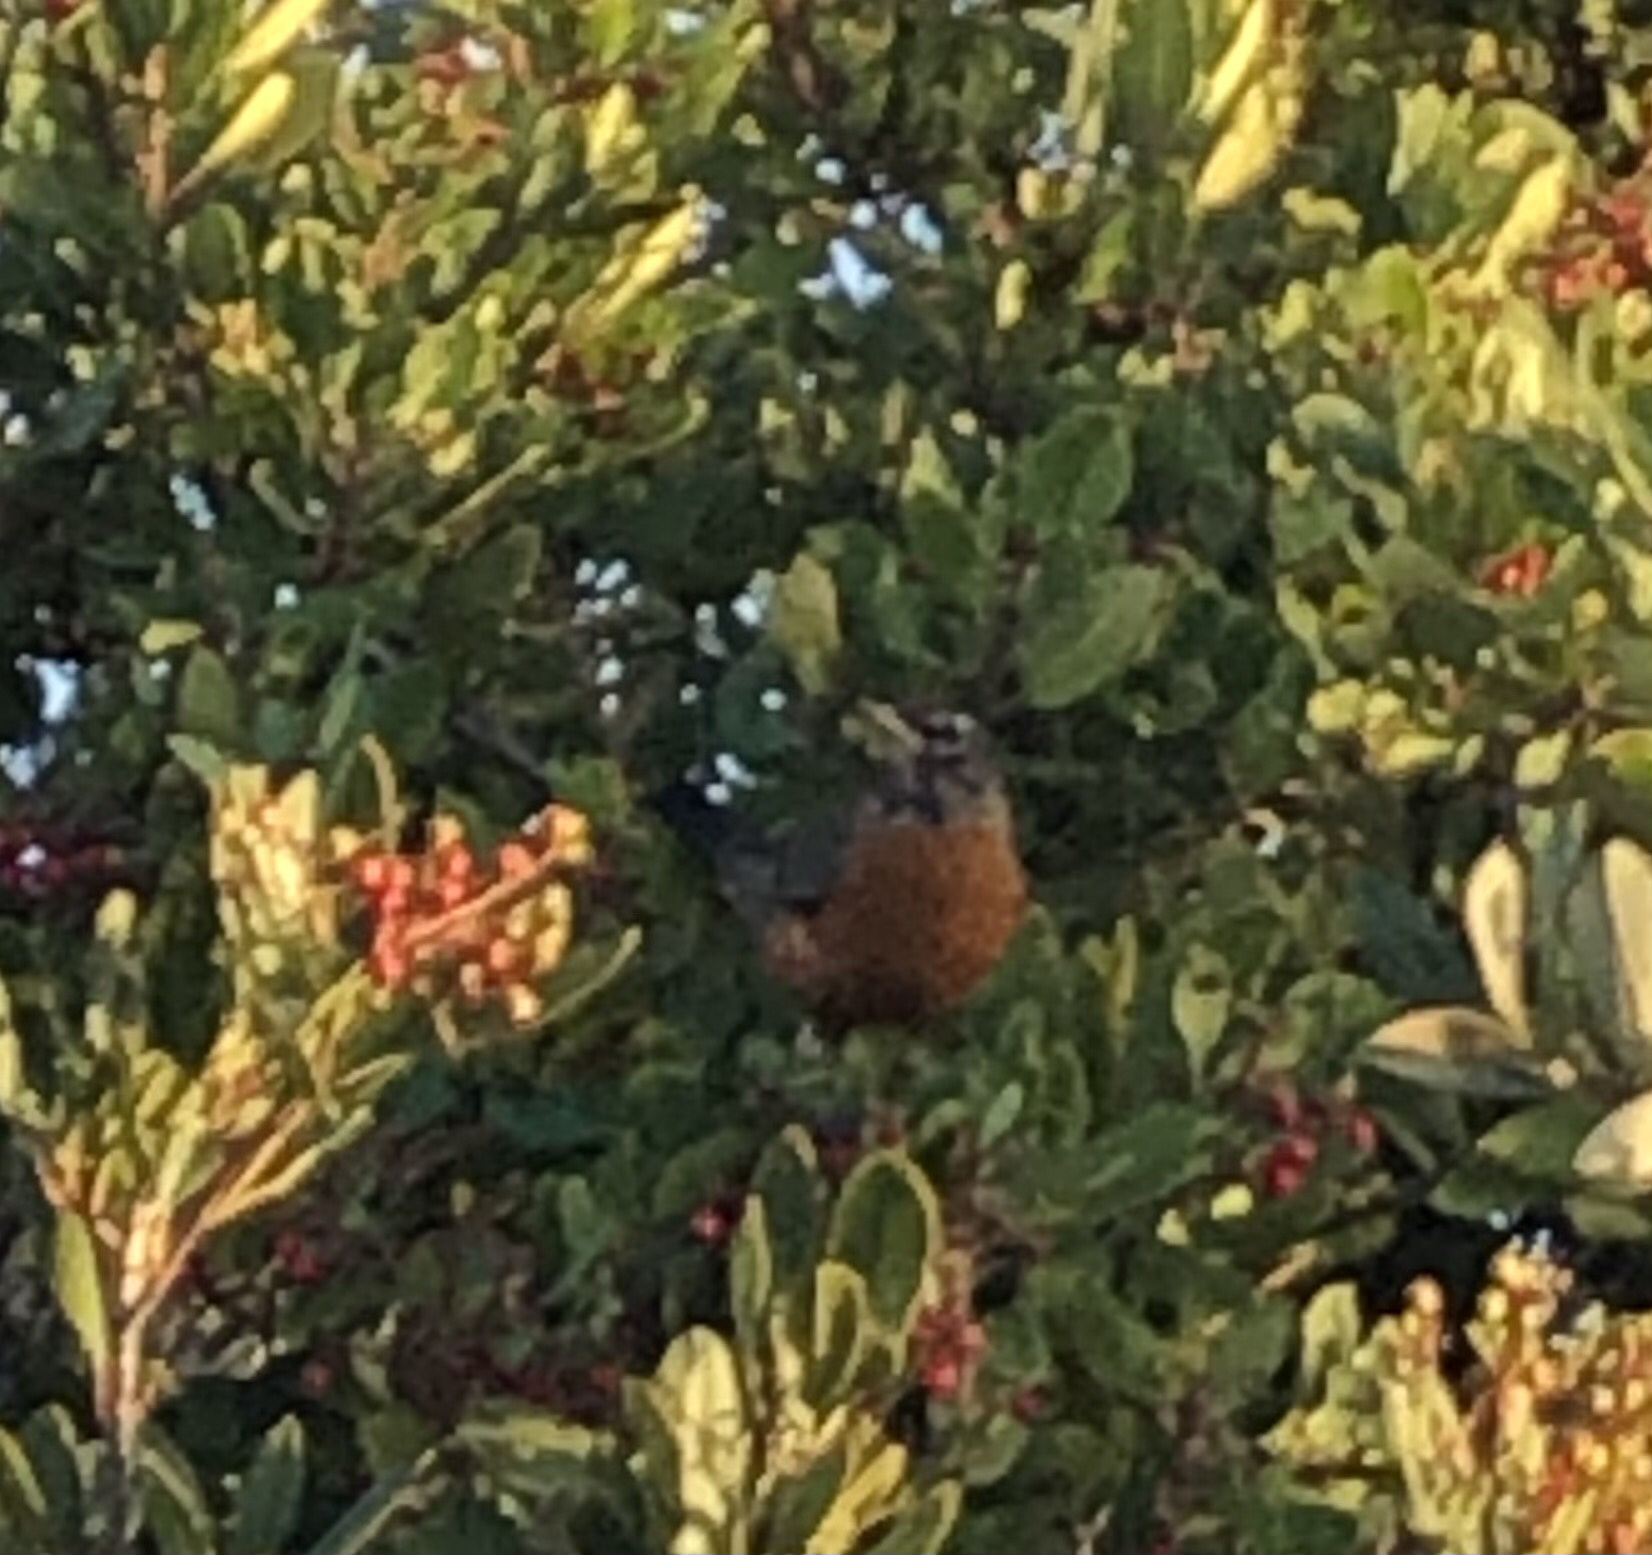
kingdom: Animalia
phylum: Chordata
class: Aves
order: Passeriformes
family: Turdidae
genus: Turdus
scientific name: Turdus migratorius
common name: American robin
